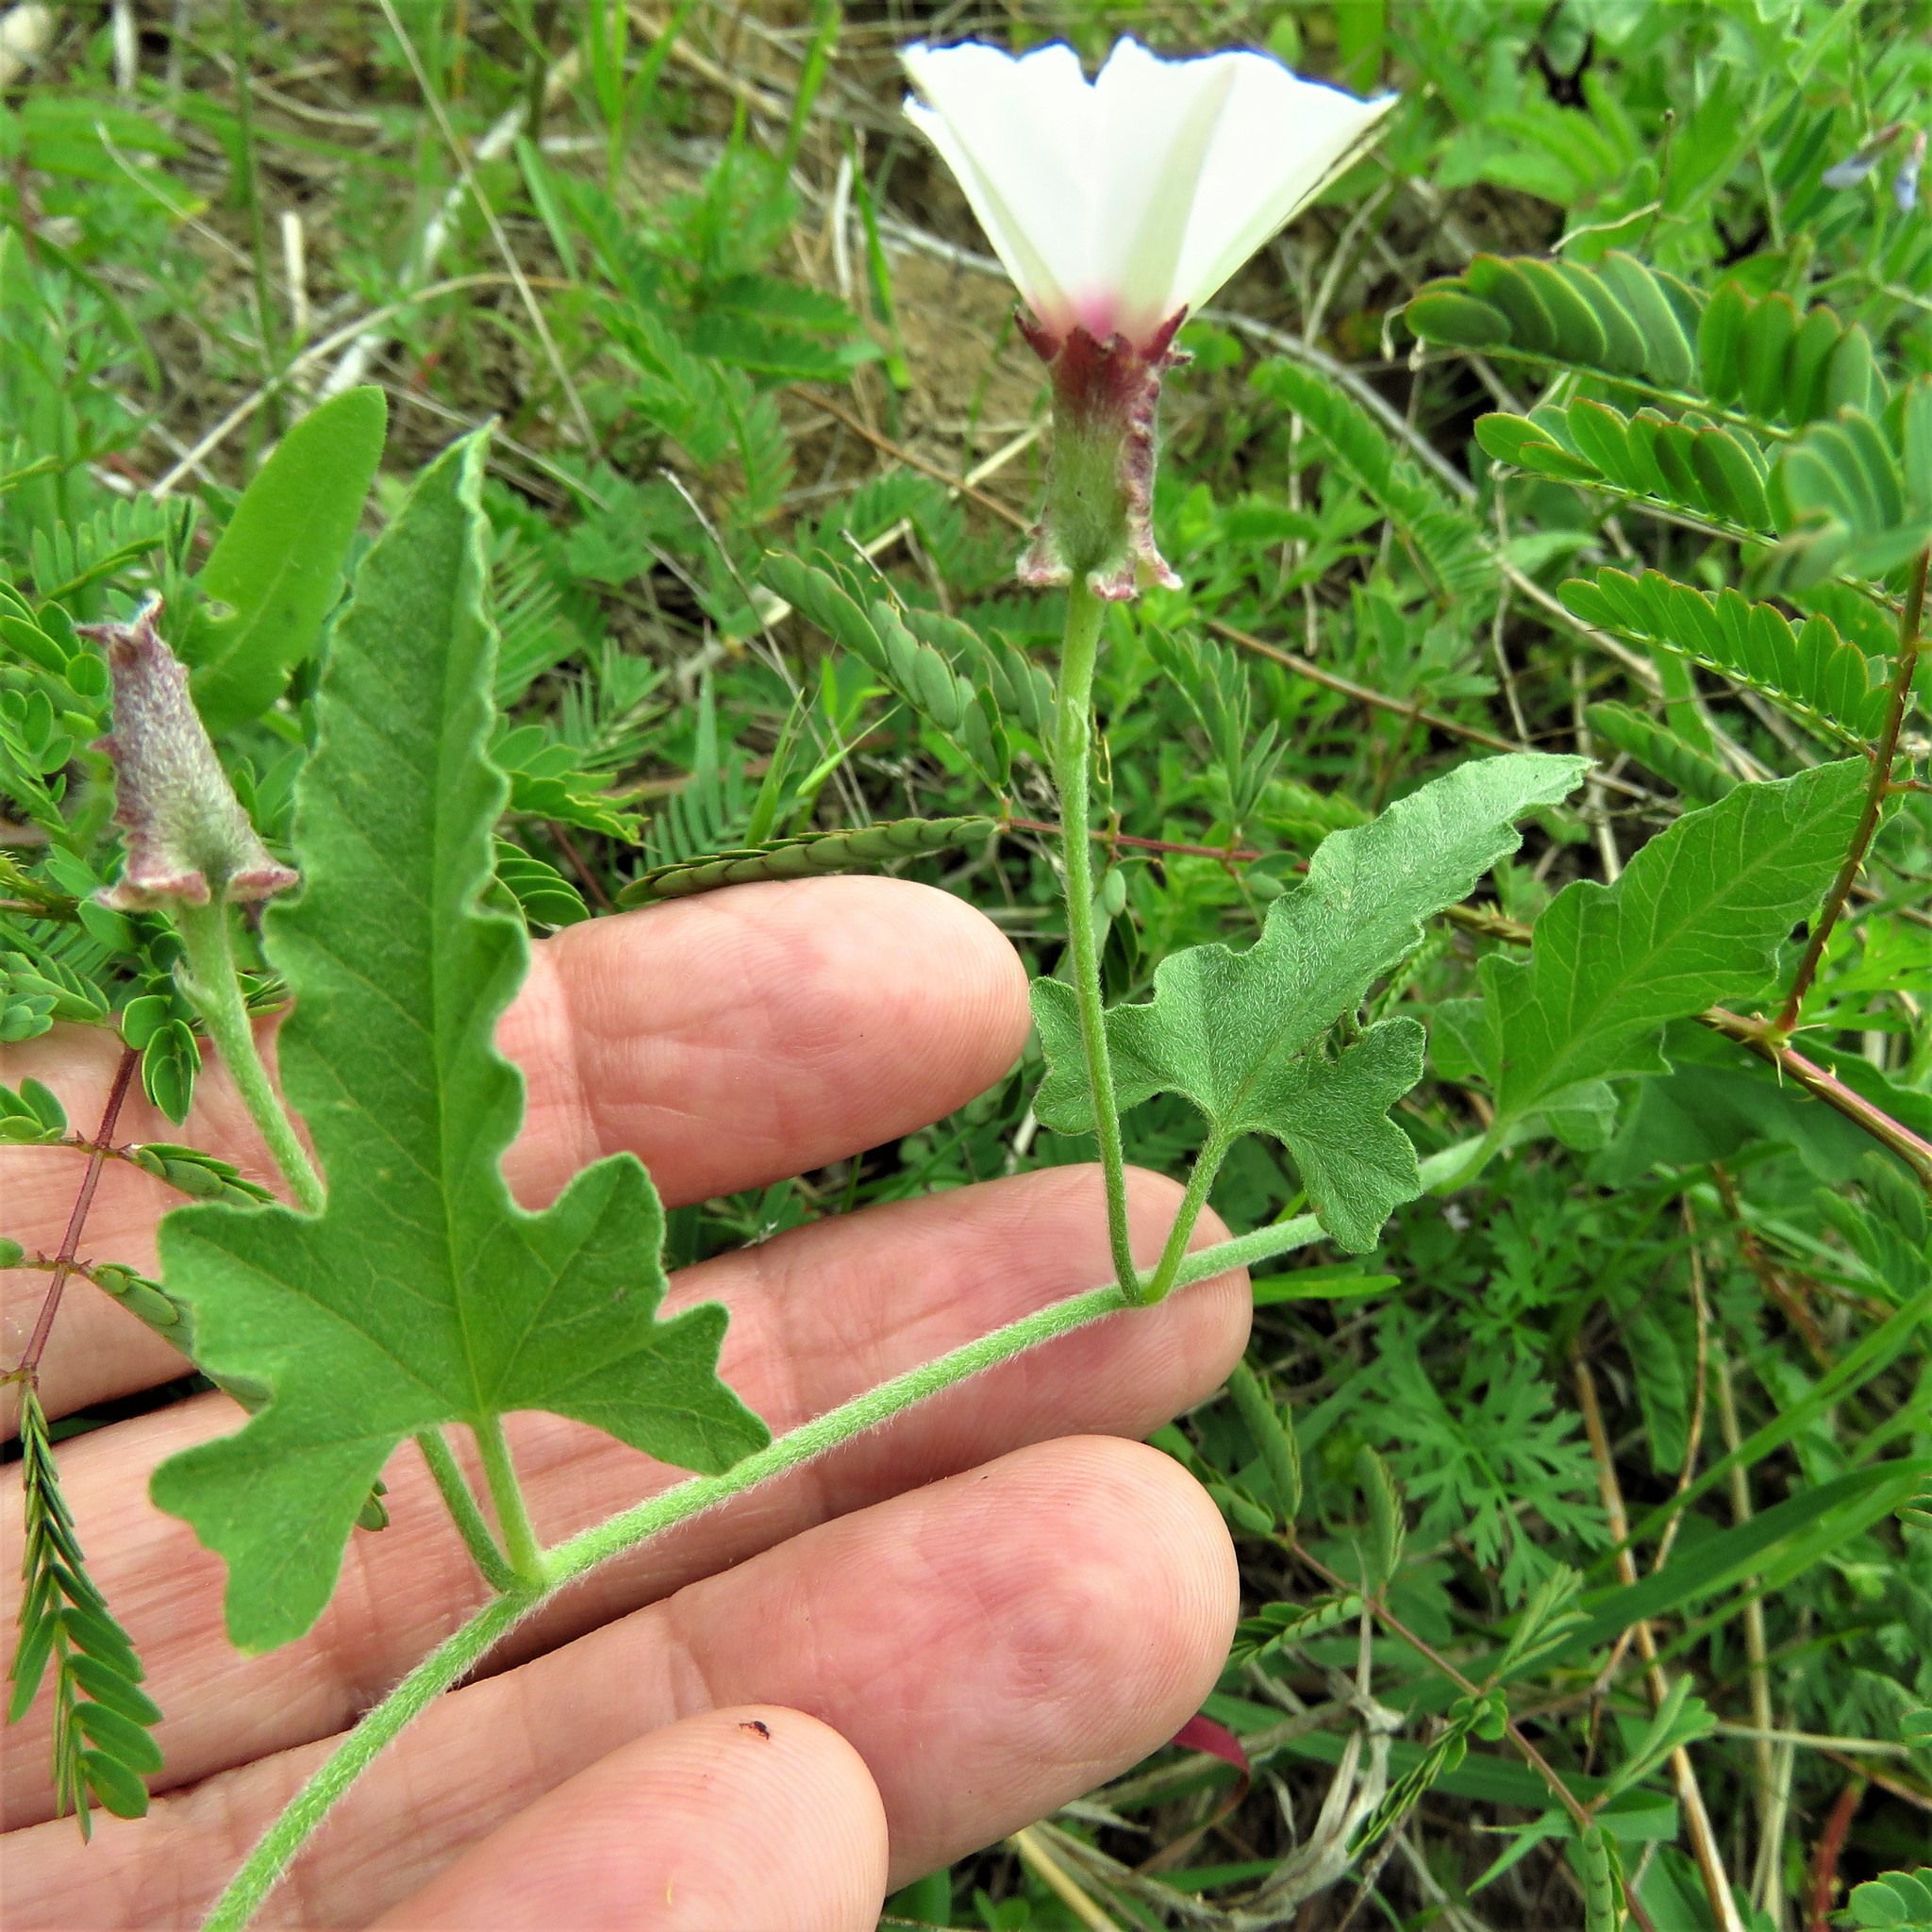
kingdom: Plantae
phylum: Tracheophyta
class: Magnoliopsida
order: Solanales
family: Convolvulaceae
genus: Convolvulus
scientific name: Convolvulus equitans
